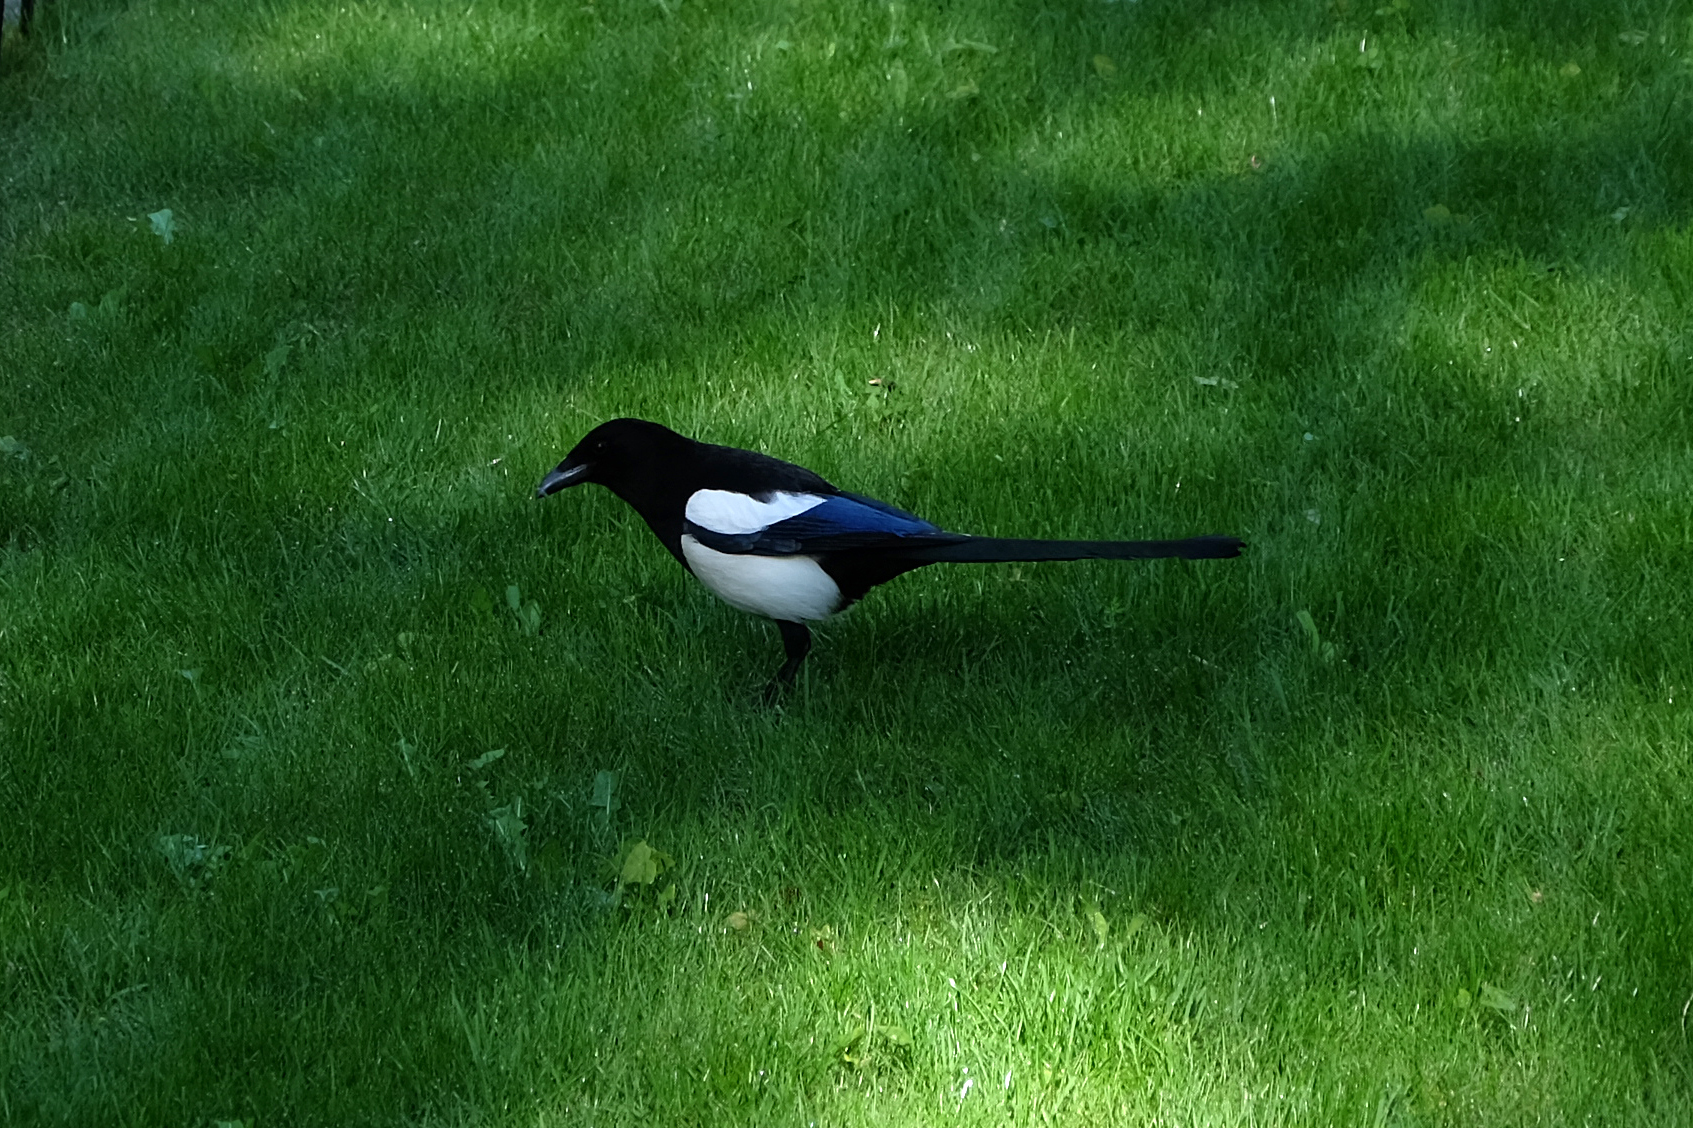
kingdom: Animalia
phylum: Chordata
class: Aves
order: Passeriformes
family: Corvidae
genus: Pica
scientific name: Pica pica
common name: Eurasian magpie
